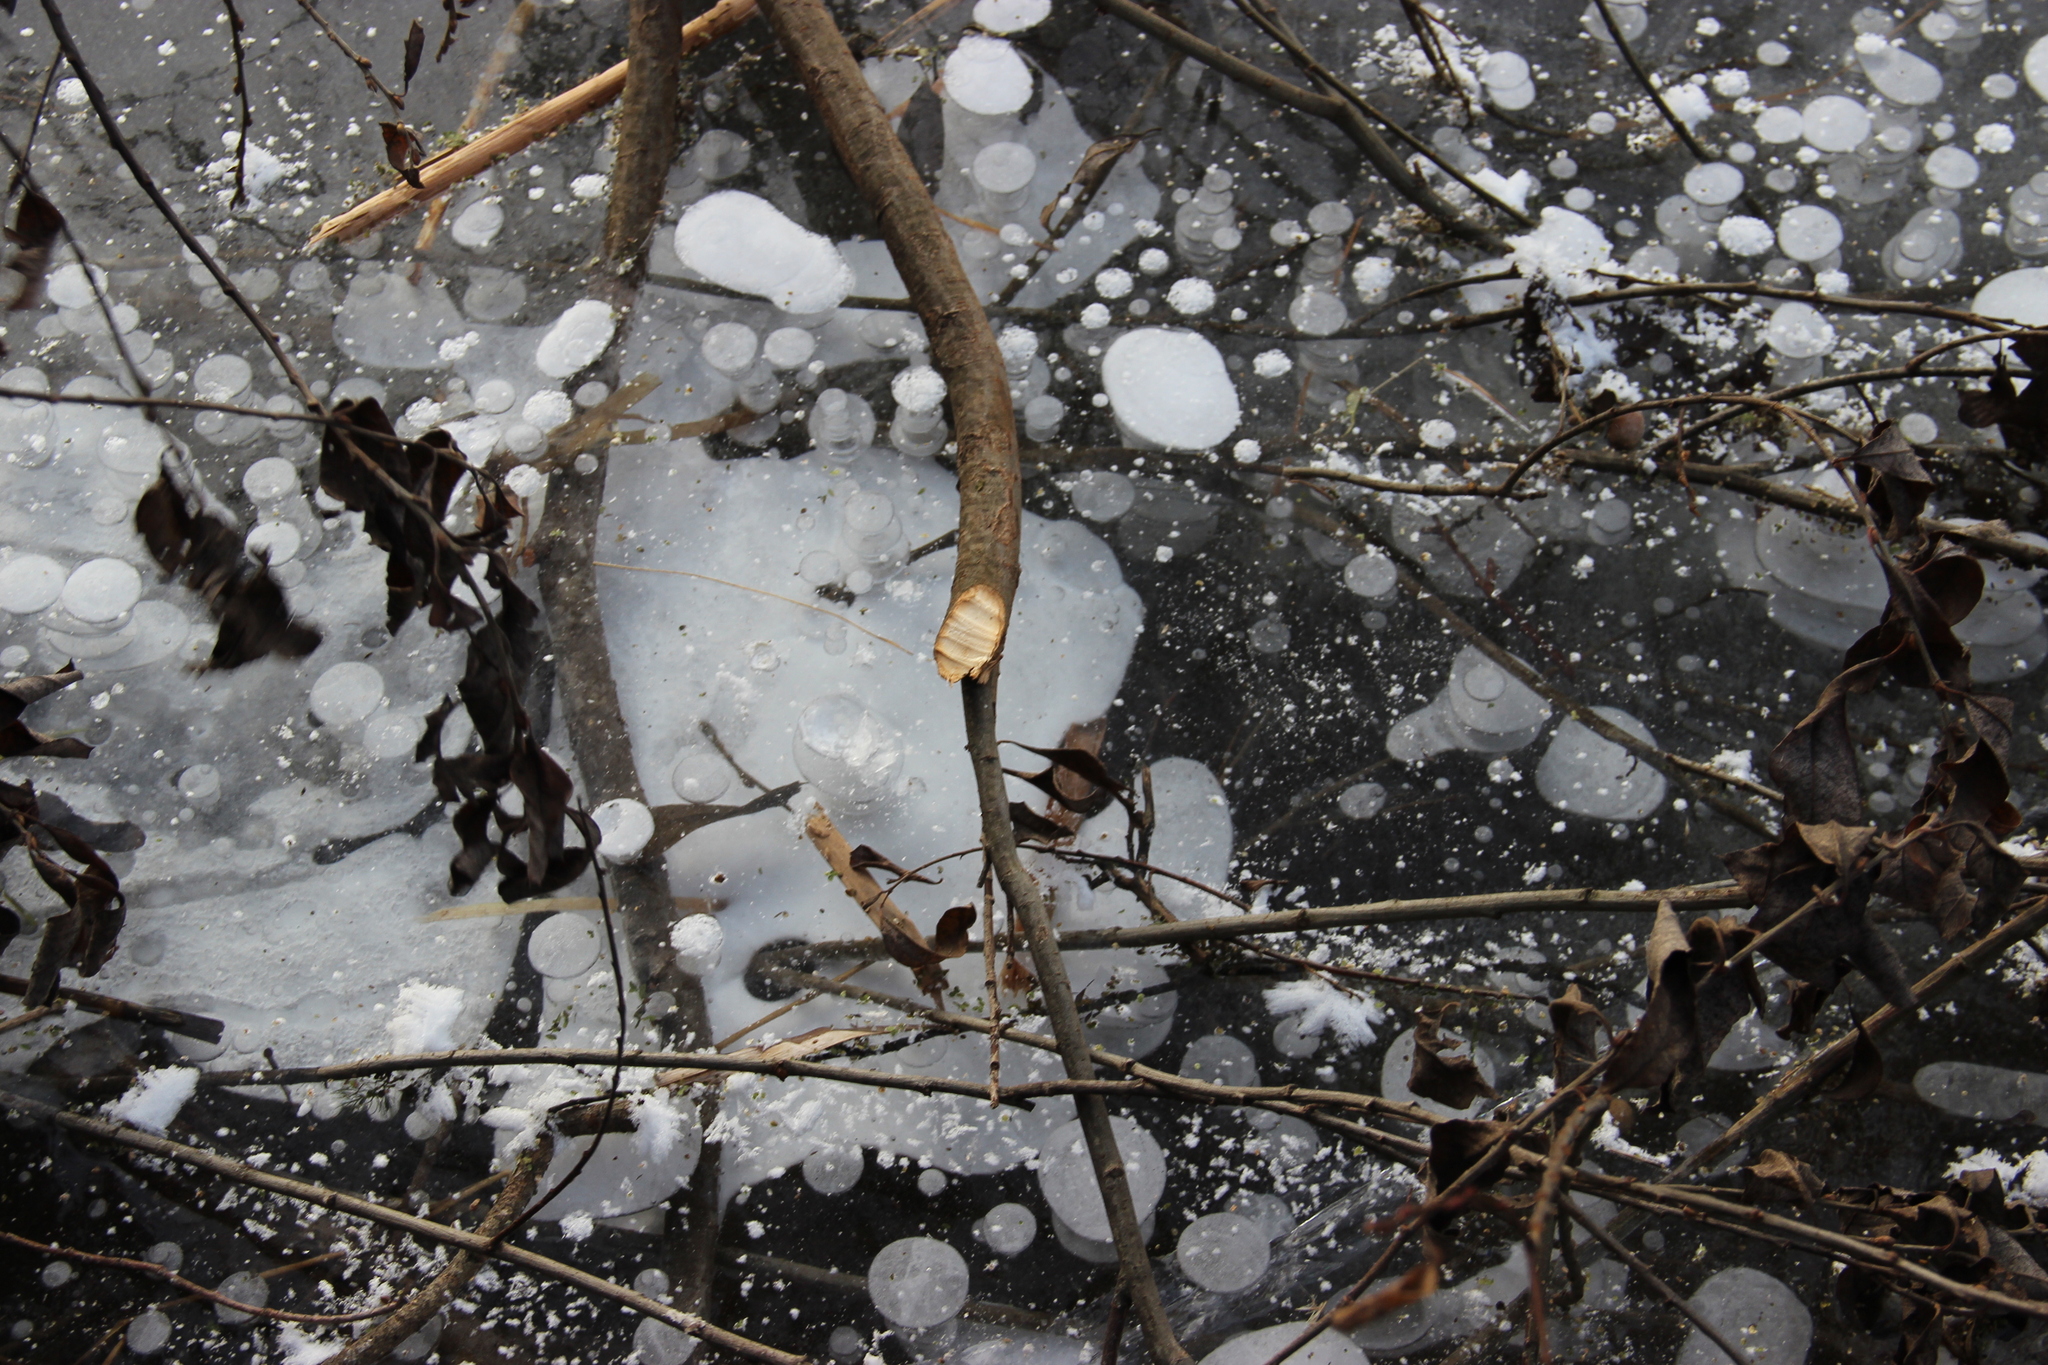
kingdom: Animalia
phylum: Chordata
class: Mammalia
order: Rodentia
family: Castoridae
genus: Castor
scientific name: Castor fiber
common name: Eurasian beaver
